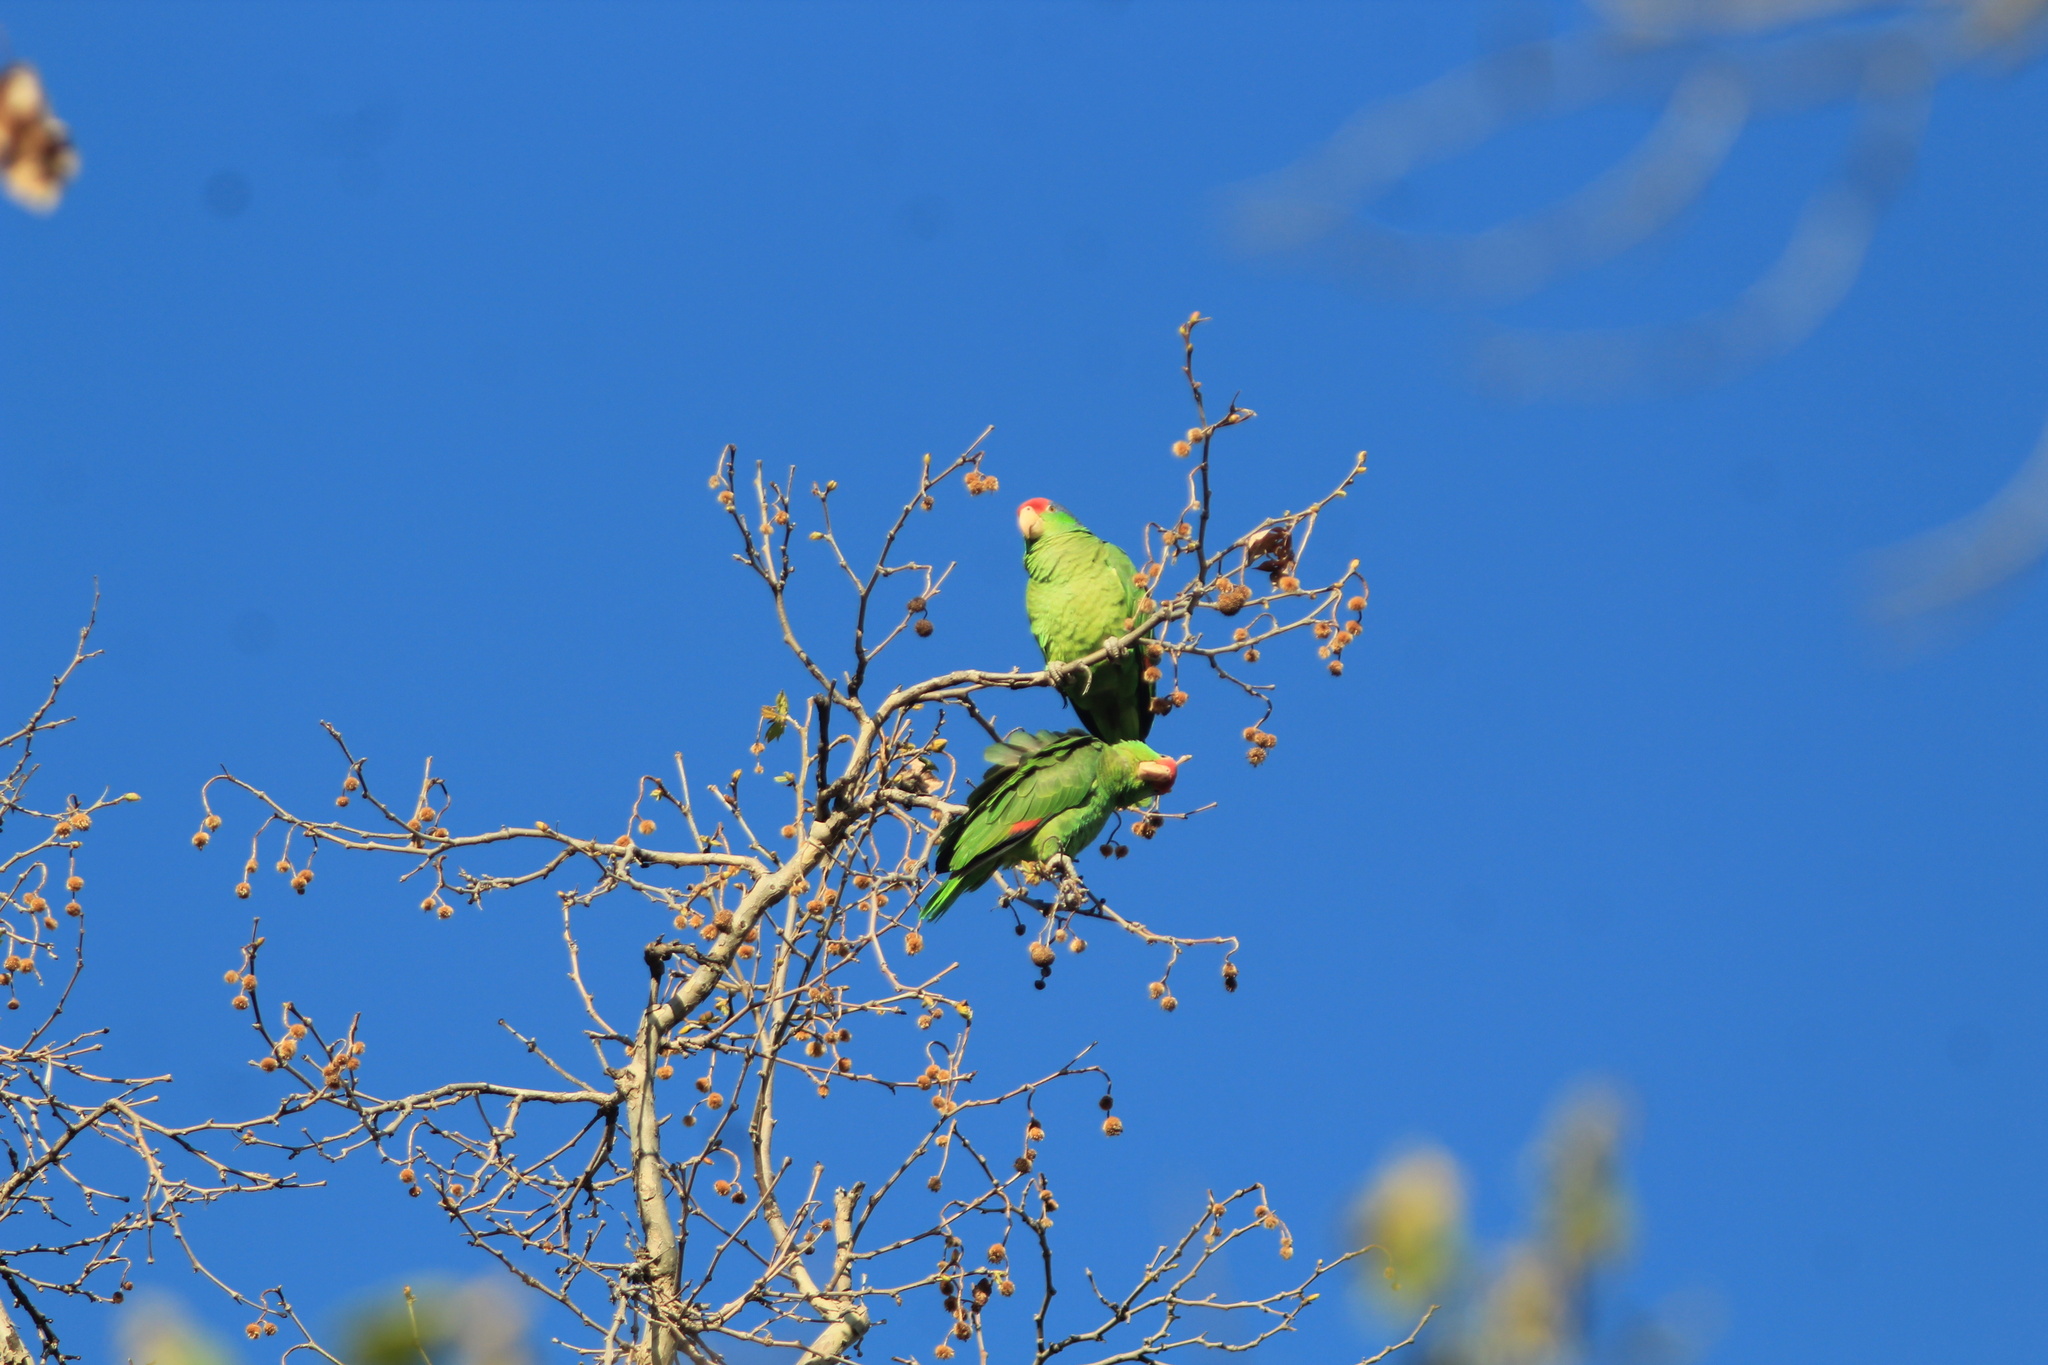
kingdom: Animalia
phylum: Chordata
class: Aves
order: Psittaciformes
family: Psittacidae
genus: Amazona
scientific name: Amazona viridigenalis
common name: Red-crowned amazon
